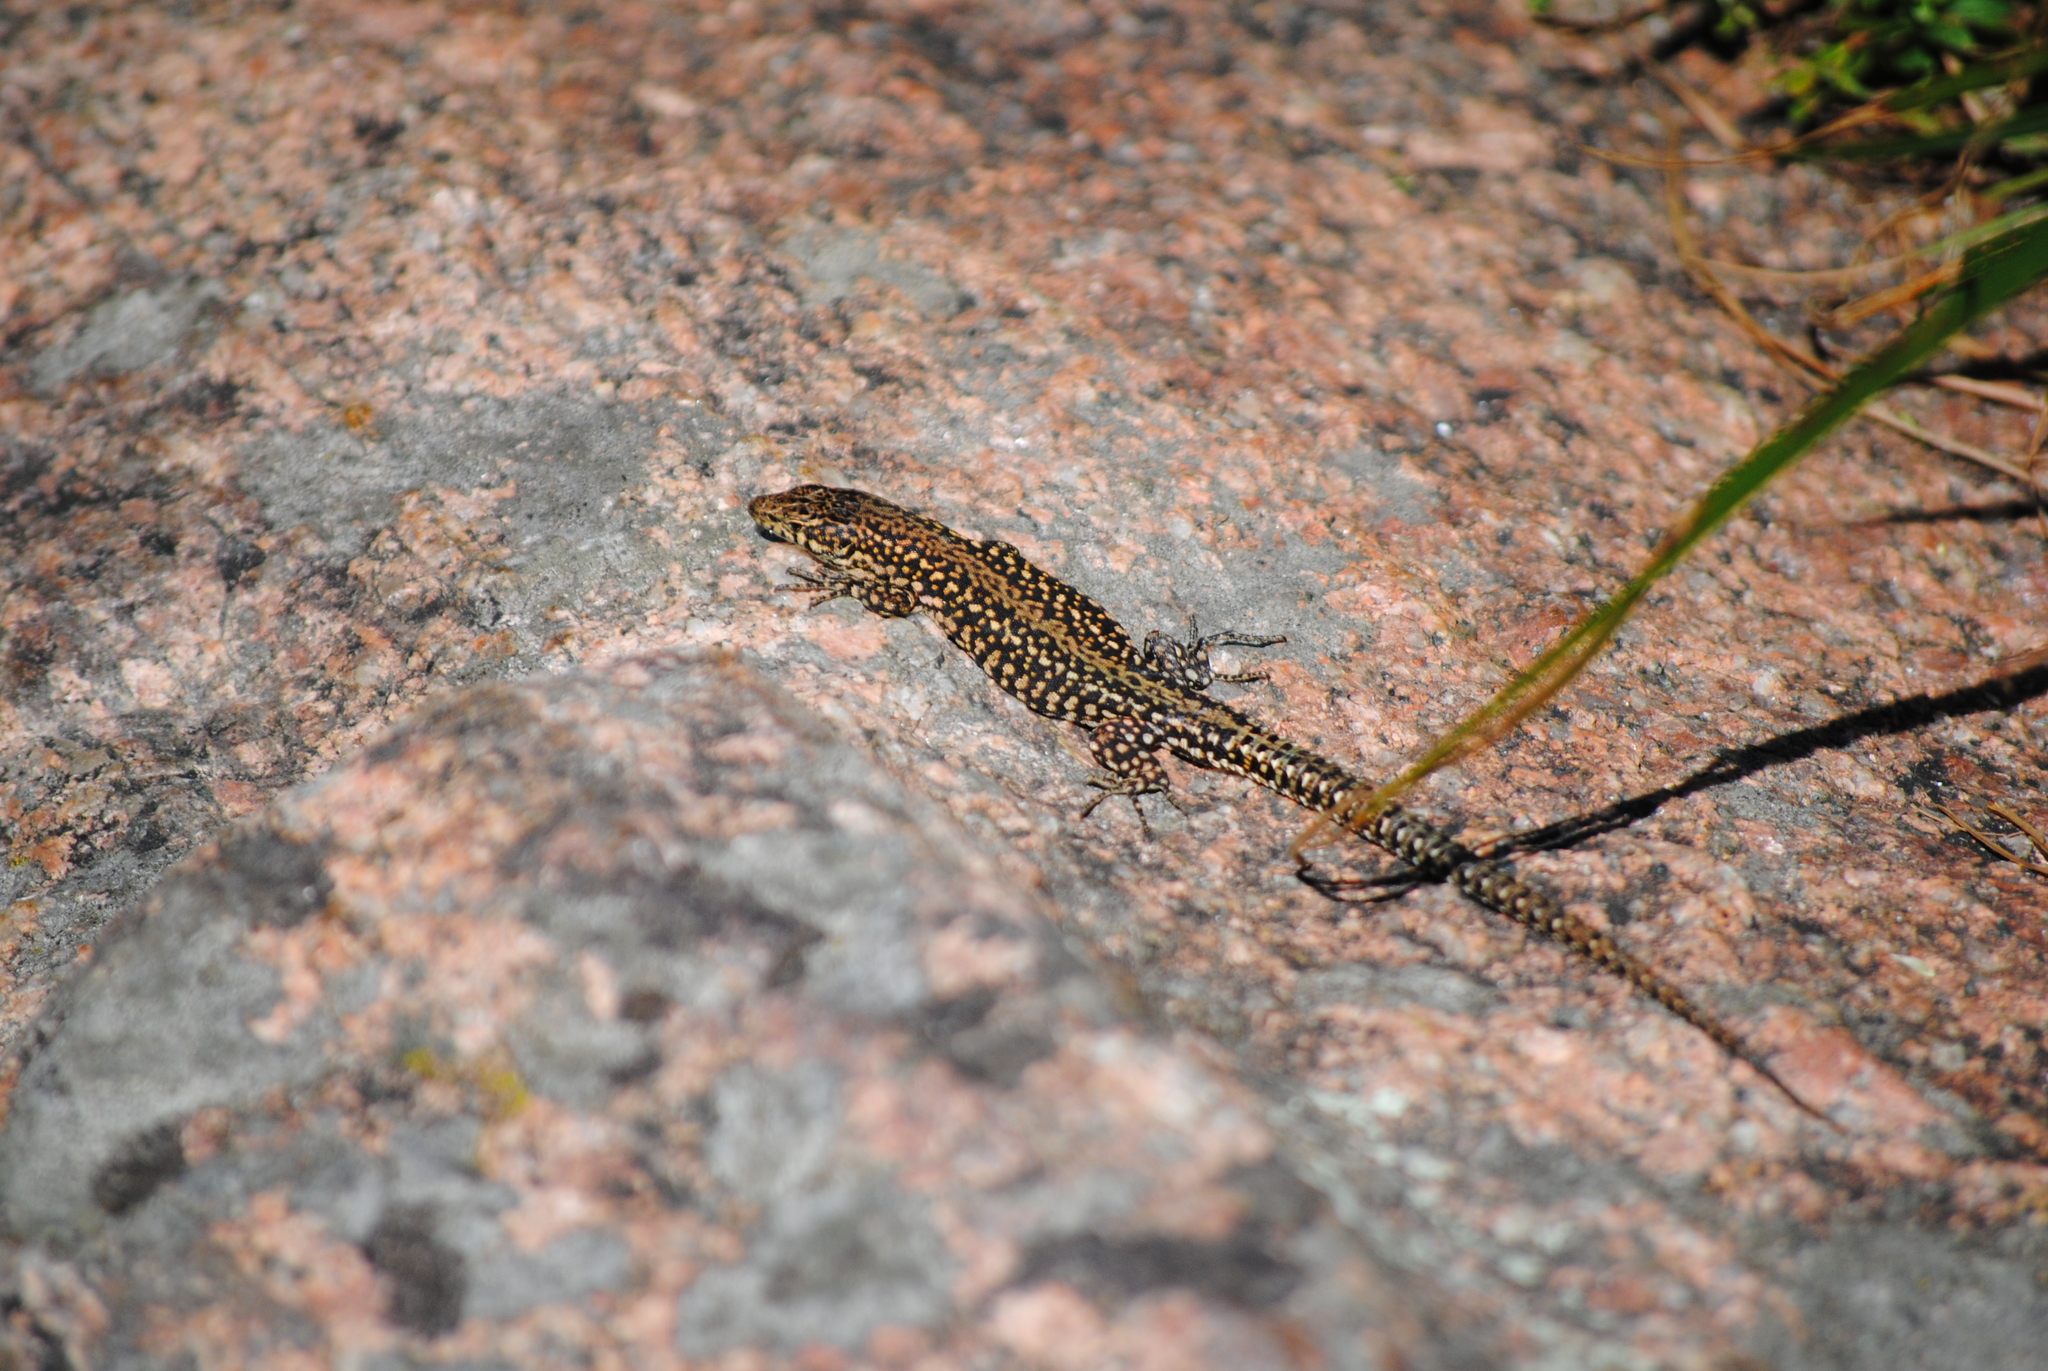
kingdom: Animalia
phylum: Chordata
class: Squamata
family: Lacertidae
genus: Podarcis
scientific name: Podarcis
